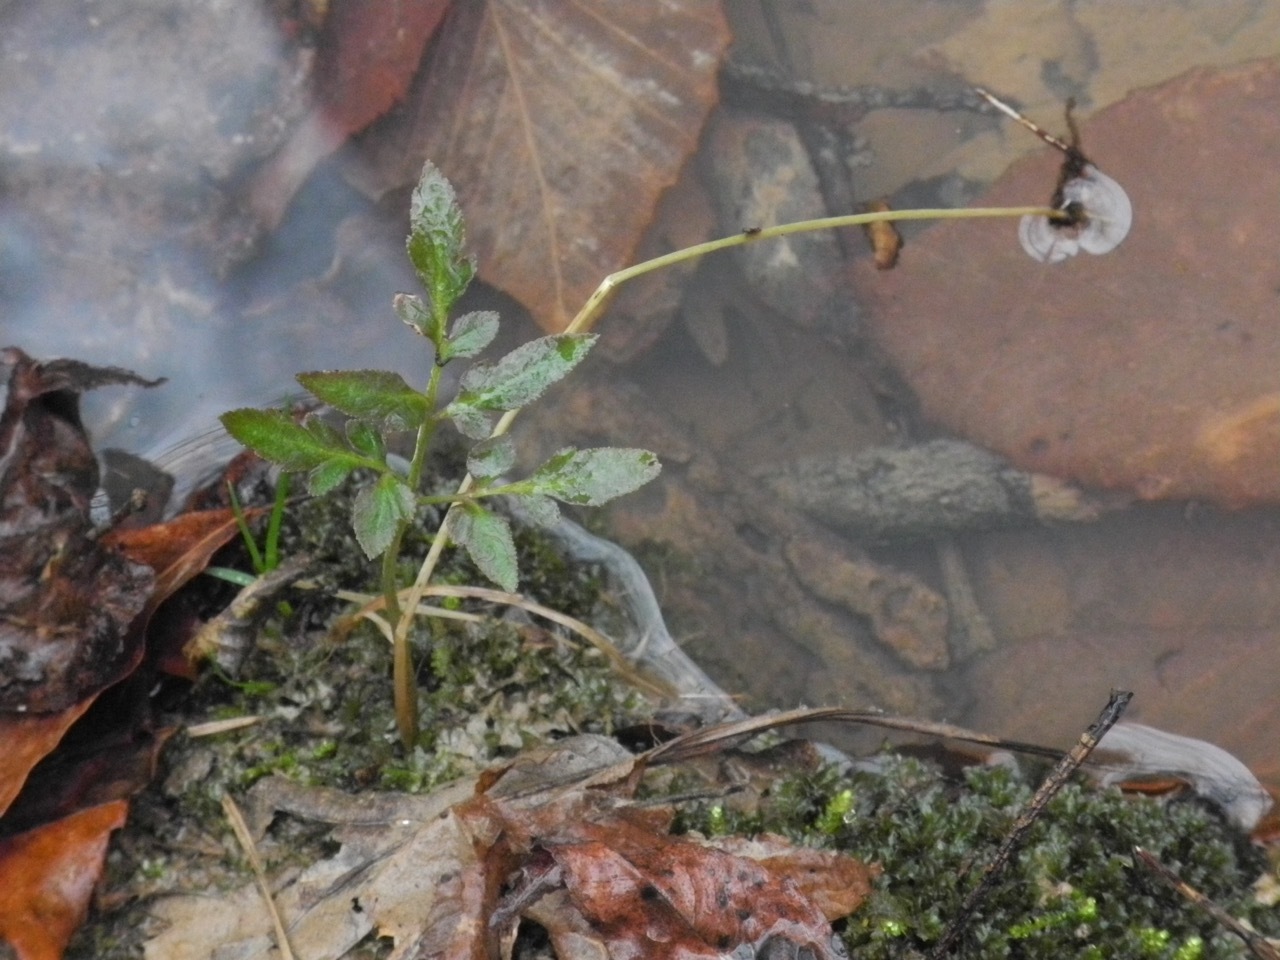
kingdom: Plantae
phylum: Tracheophyta
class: Polypodiopsida
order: Ophioglossales
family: Ophioglossaceae
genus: Sceptridium
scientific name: Sceptridium biternatum
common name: Sparse-lobed grapefern
